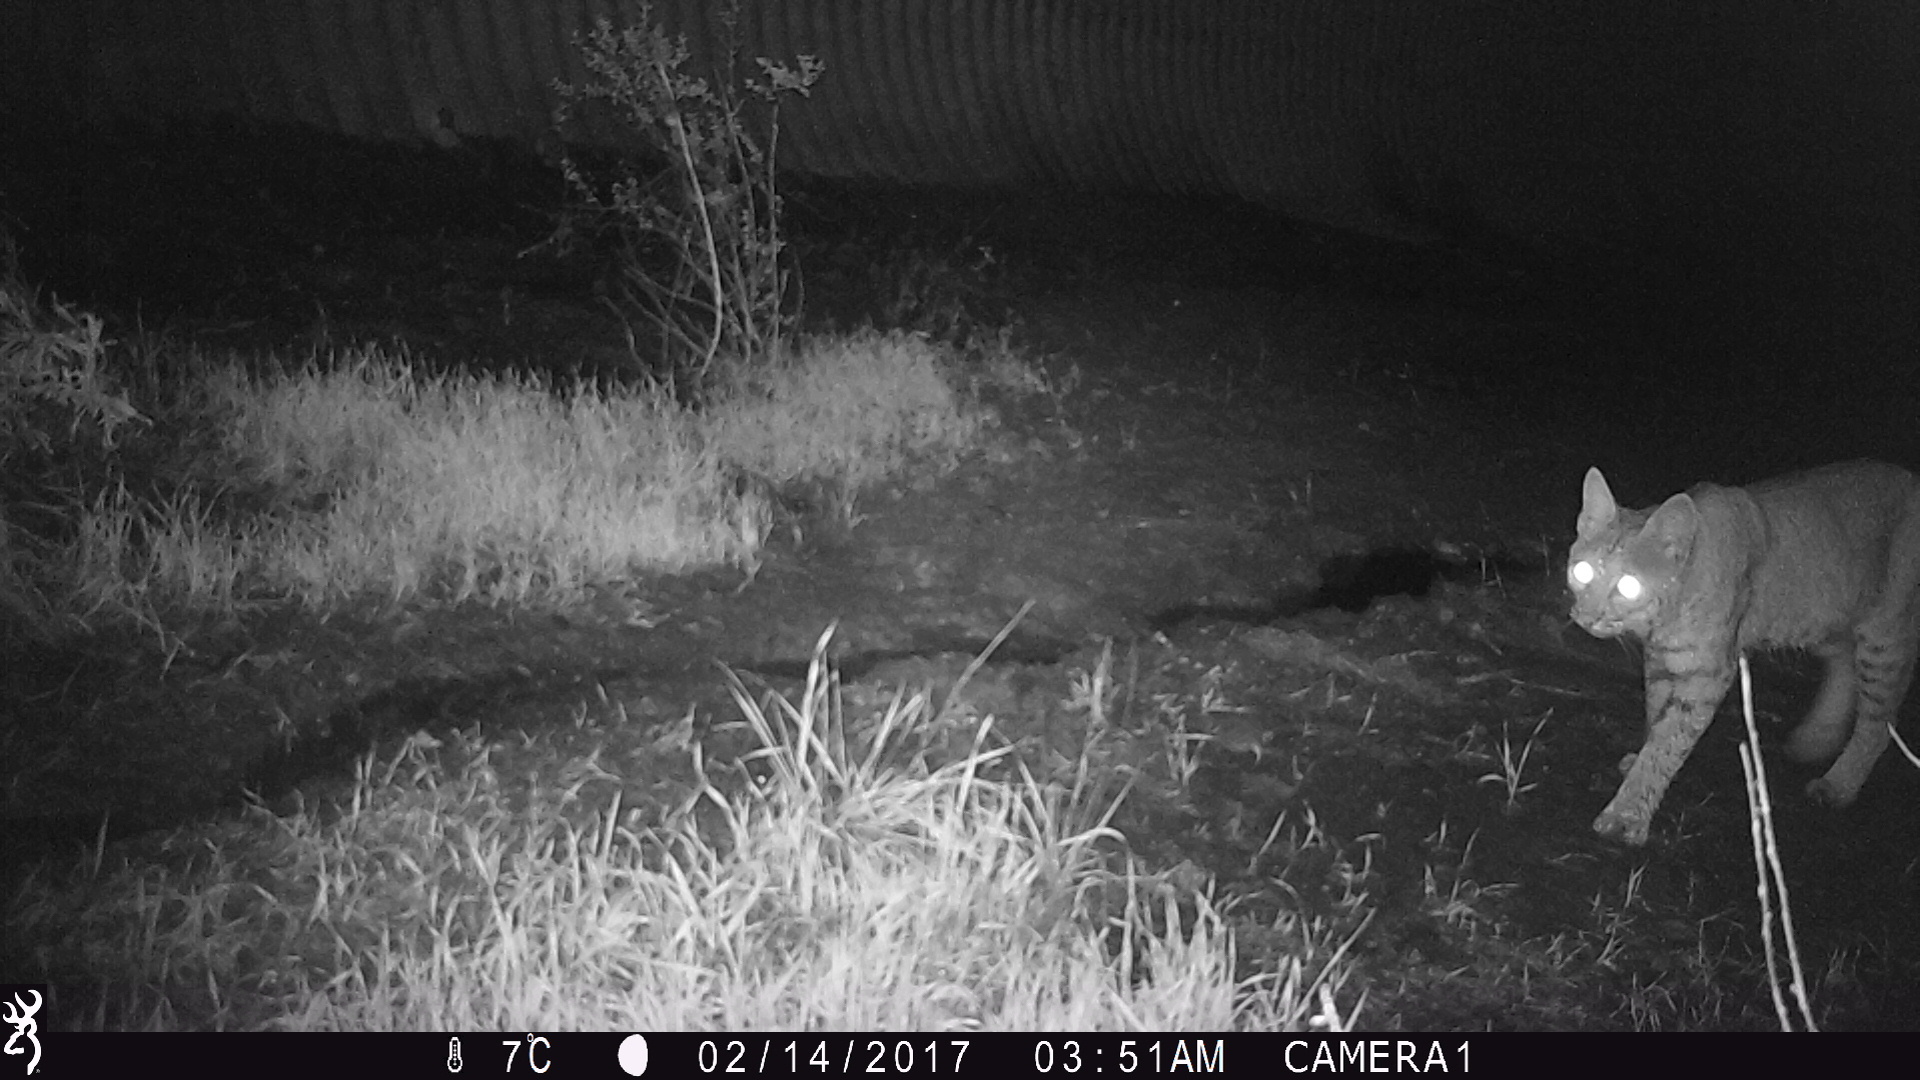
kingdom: Animalia
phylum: Chordata
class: Mammalia
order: Carnivora
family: Felidae
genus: Lynx
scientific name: Lynx rufus
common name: Bobcat
